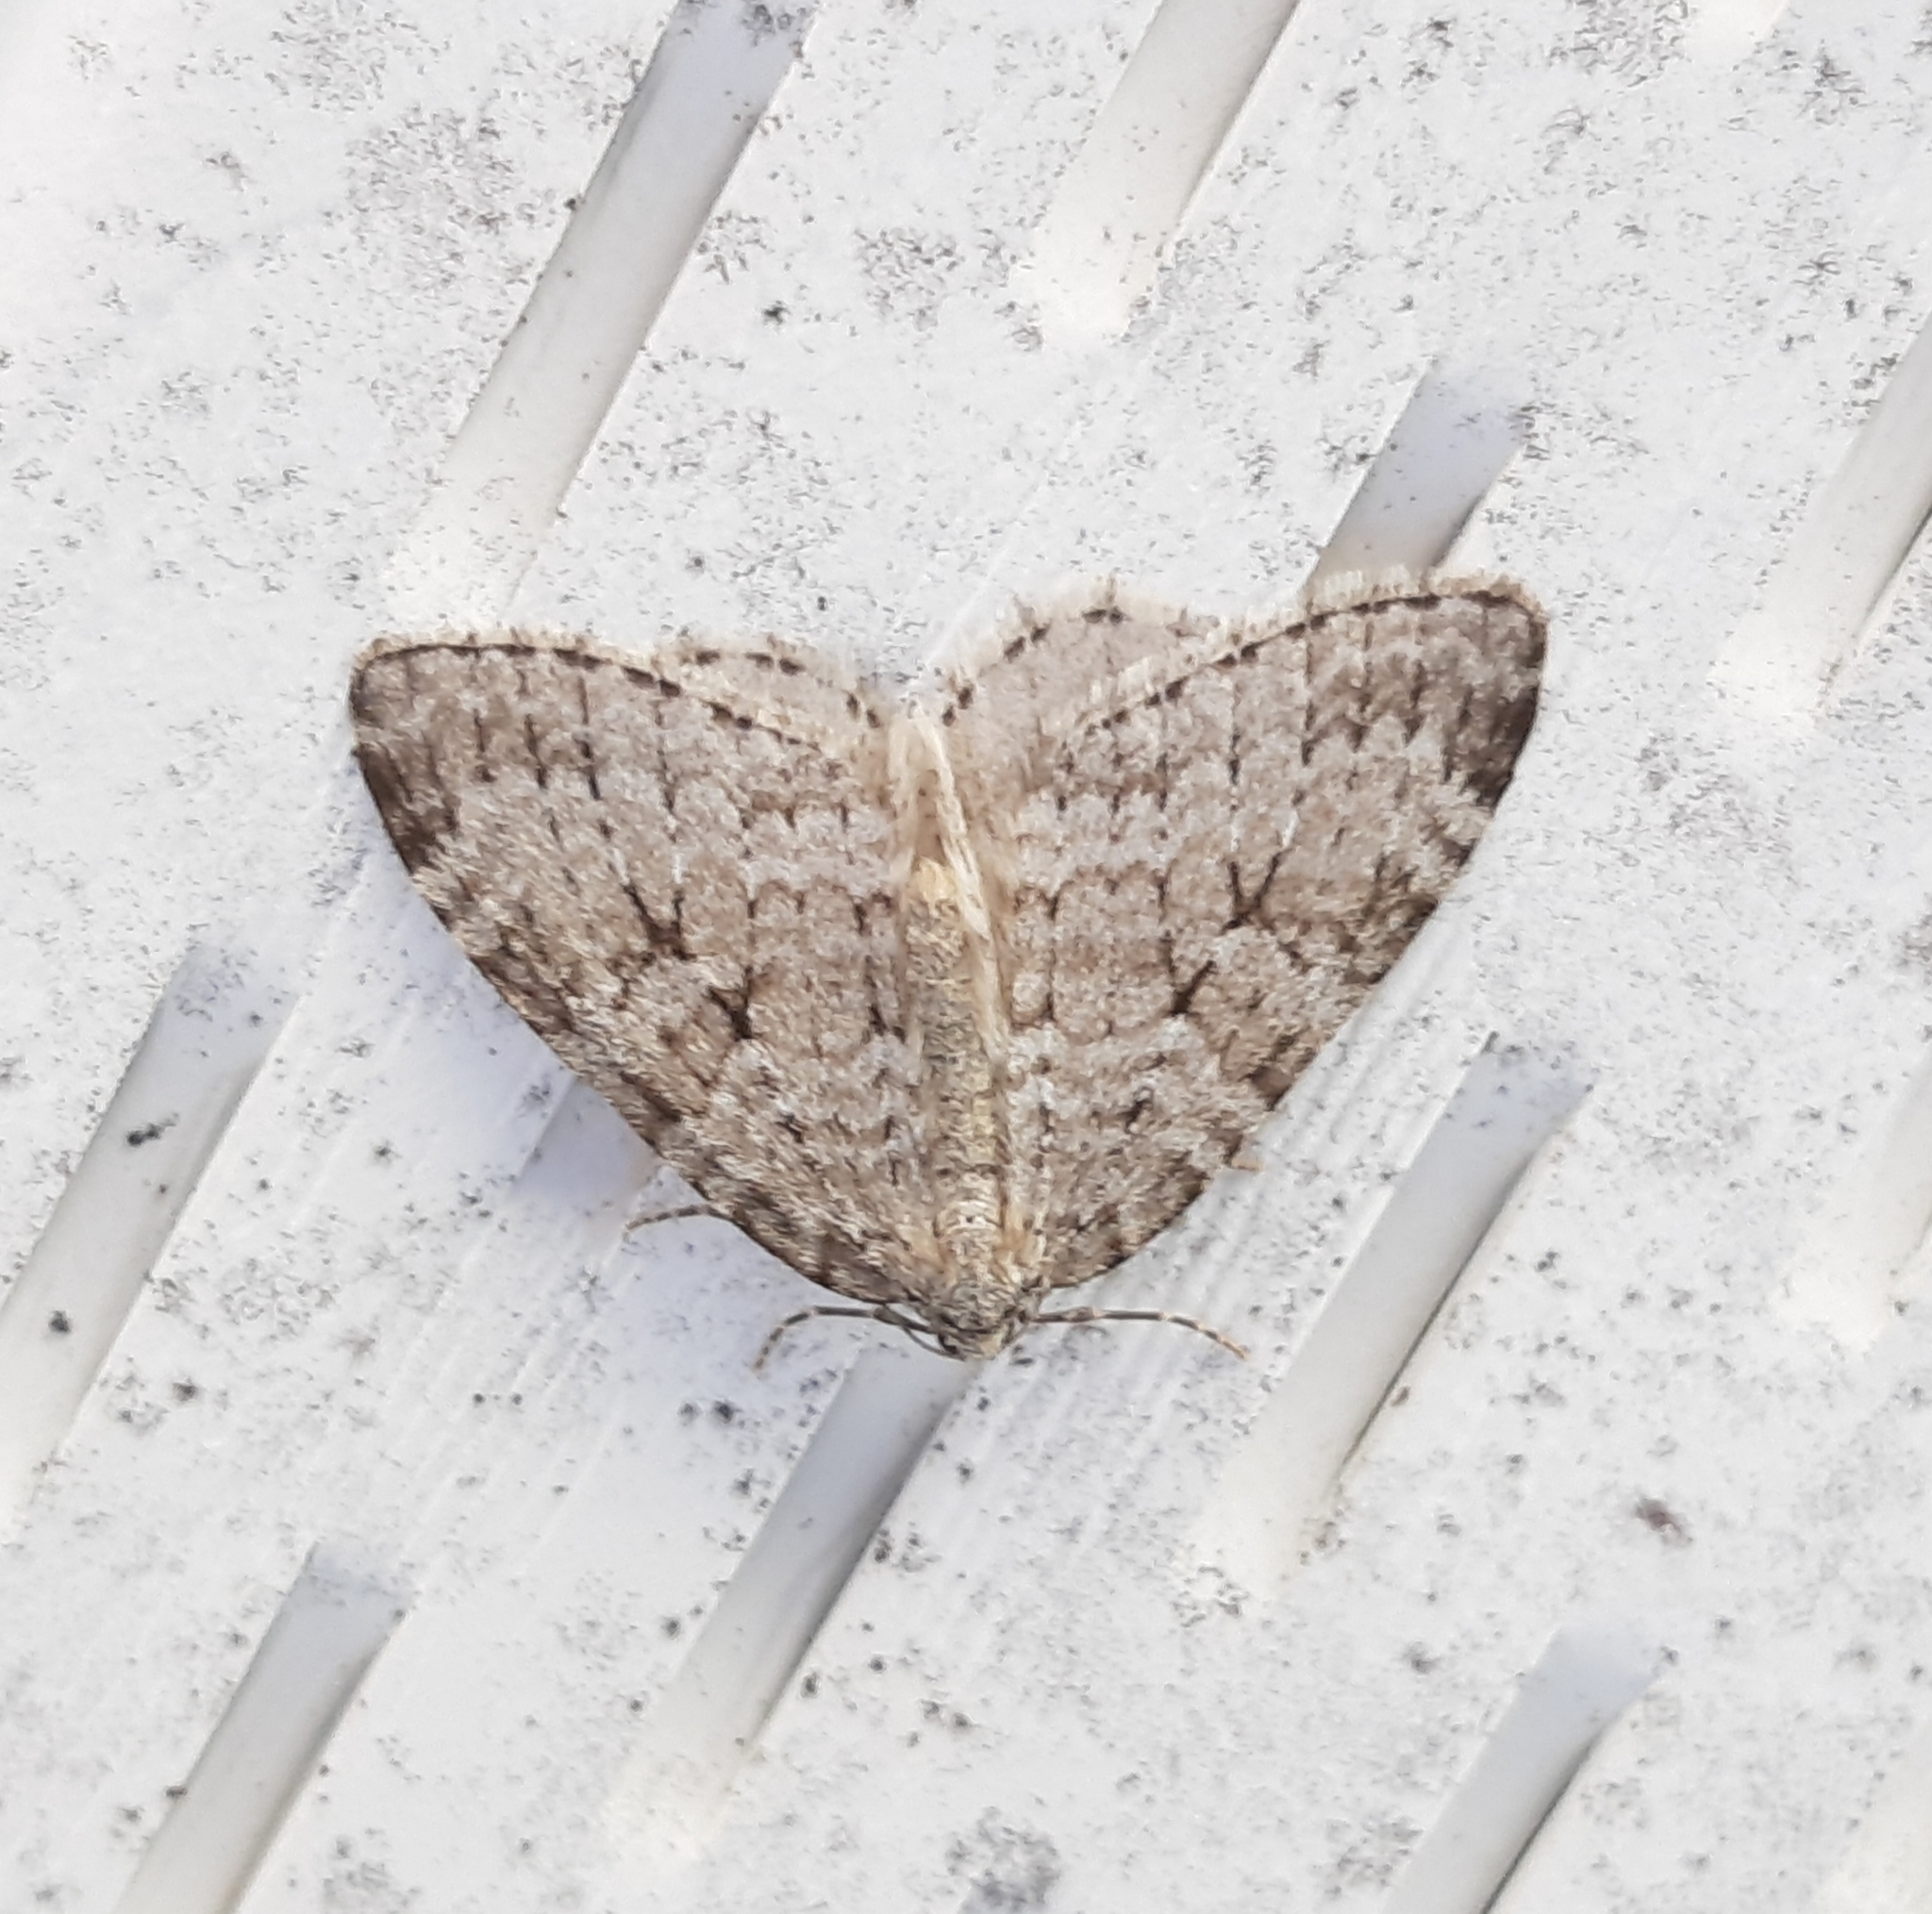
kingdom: Animalia
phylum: Arthropoda
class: Insecta
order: Lepidoptera
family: Geometridae
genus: Epirrita
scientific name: Epirrita autumnata
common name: Autumnal moth
